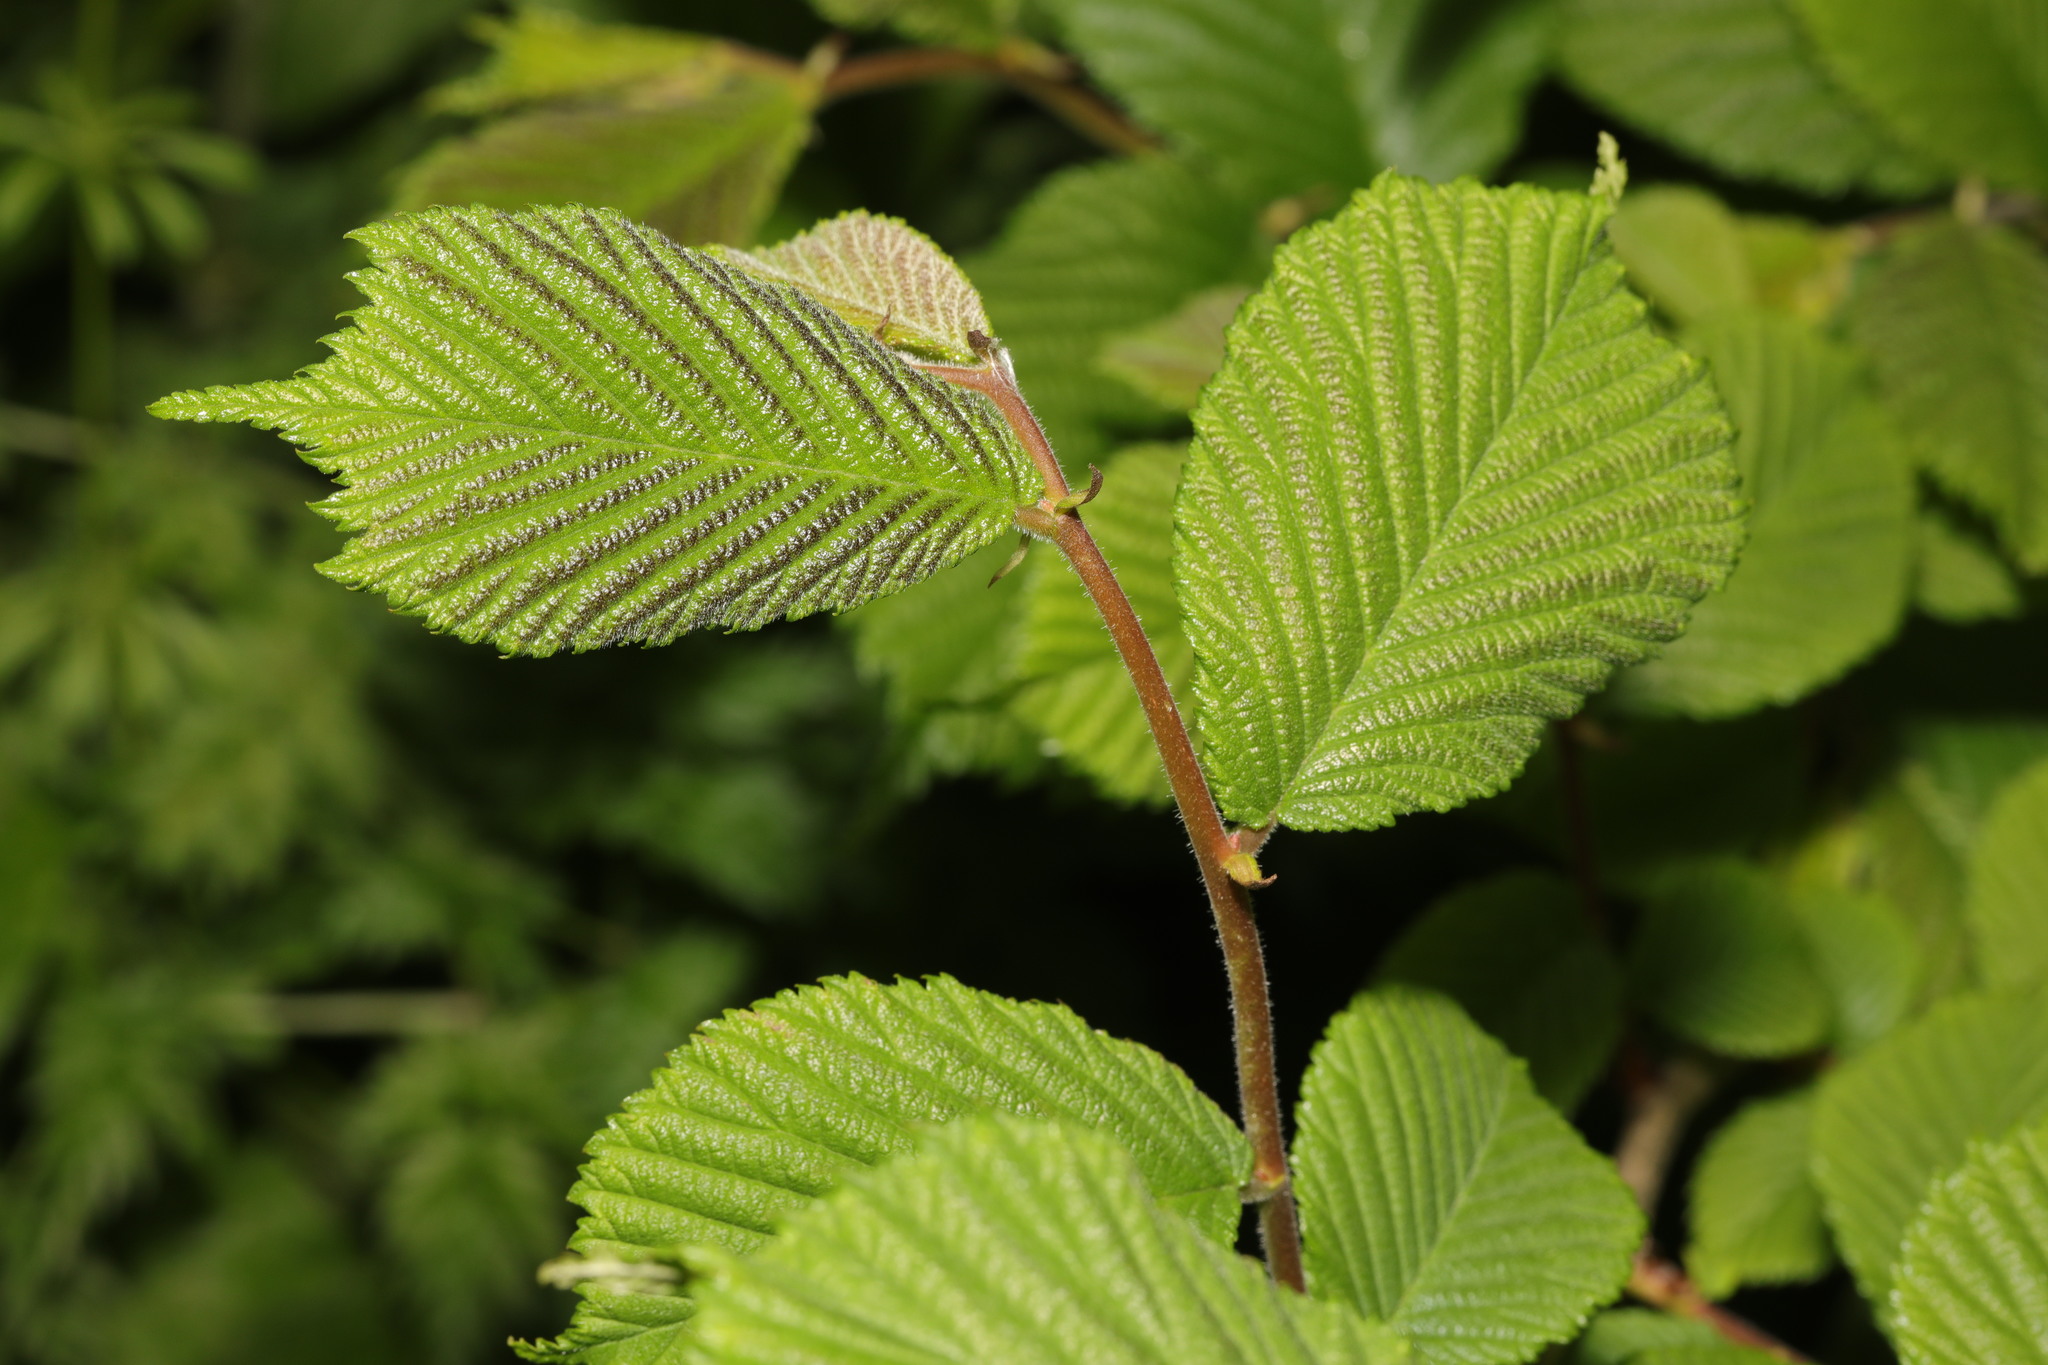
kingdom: Plantae
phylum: Tracheophyta
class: Magnoliopsida
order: Rosales
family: Ulmaceae
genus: Ulmus
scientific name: Ulmus glabra
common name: Wych elm
